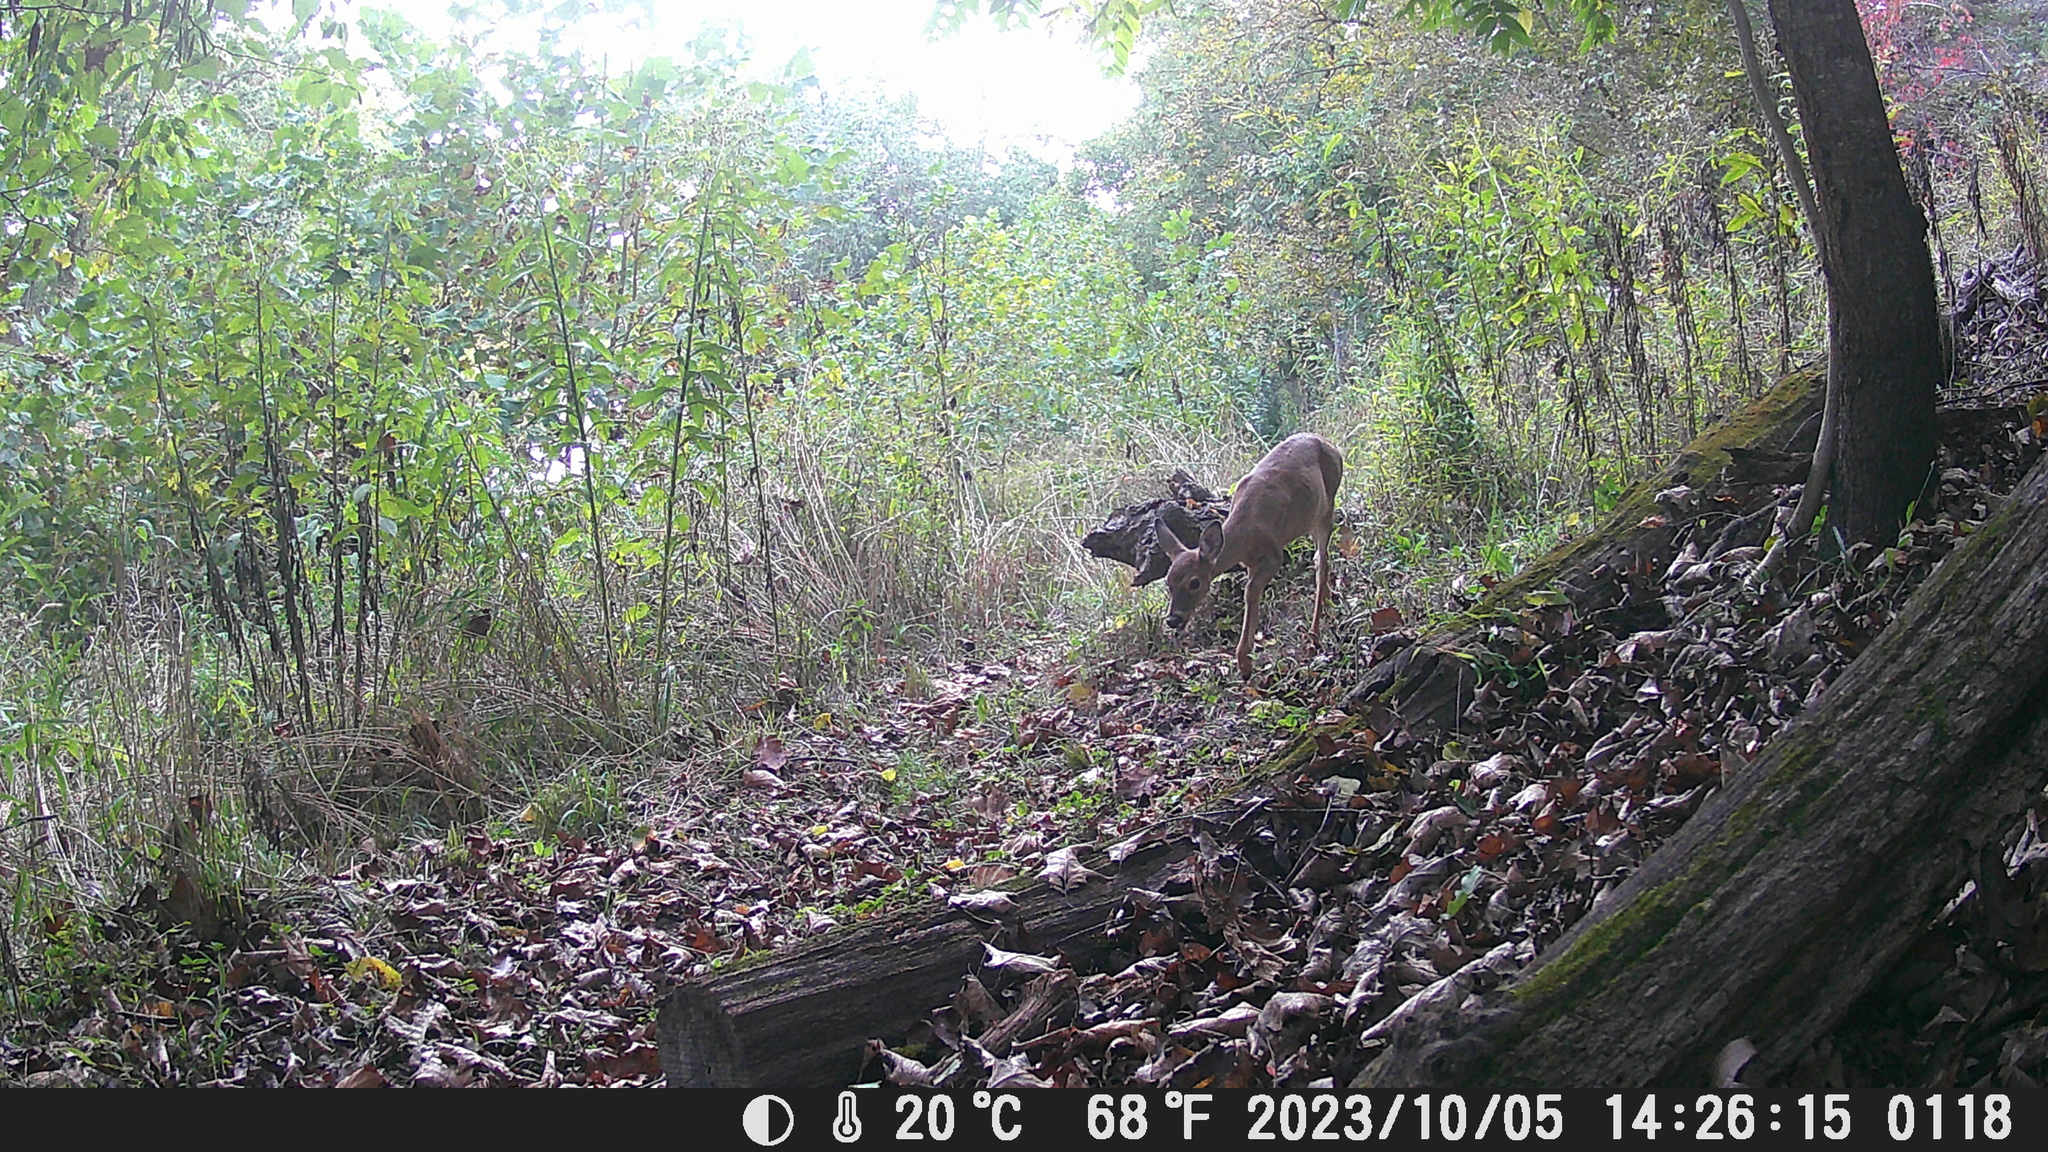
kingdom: Animalia
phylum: Chordata
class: Mammalia
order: Artiodactyla
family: Cervidae
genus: Odocoileus
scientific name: Odocoileus virginianus
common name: White-tailed deer
